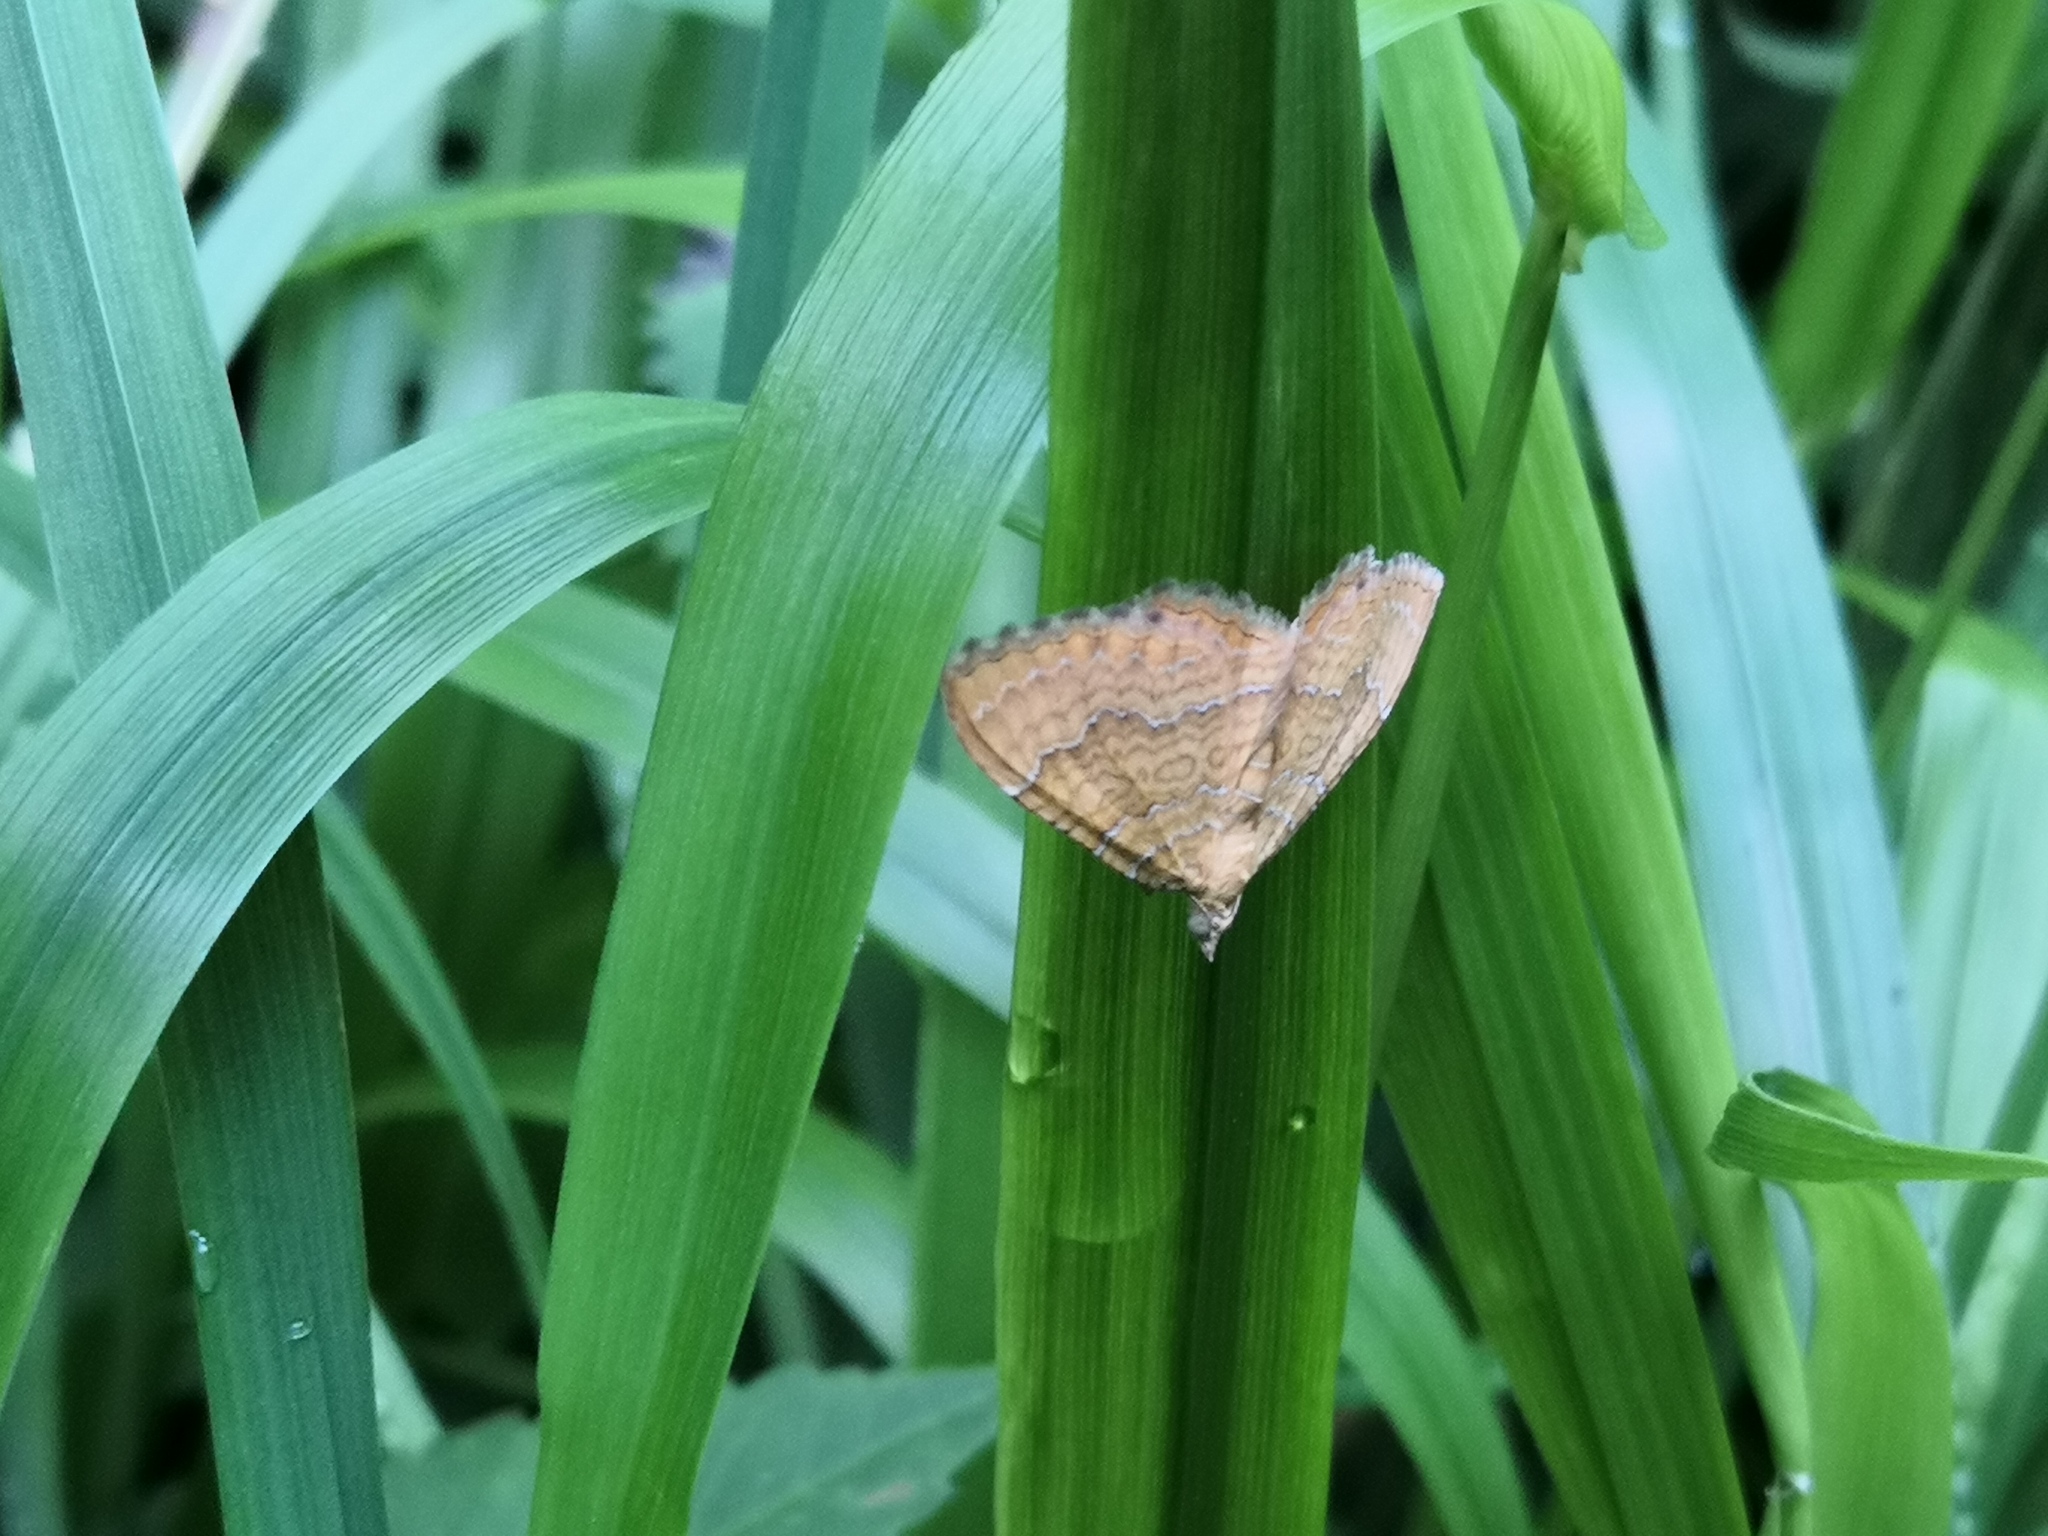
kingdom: Animalia
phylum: Arthropoda
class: Insecta
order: Lepidoptera
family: Geometridae
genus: Camptogramma
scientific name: Camptogramma bilineata
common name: Yellow shell
